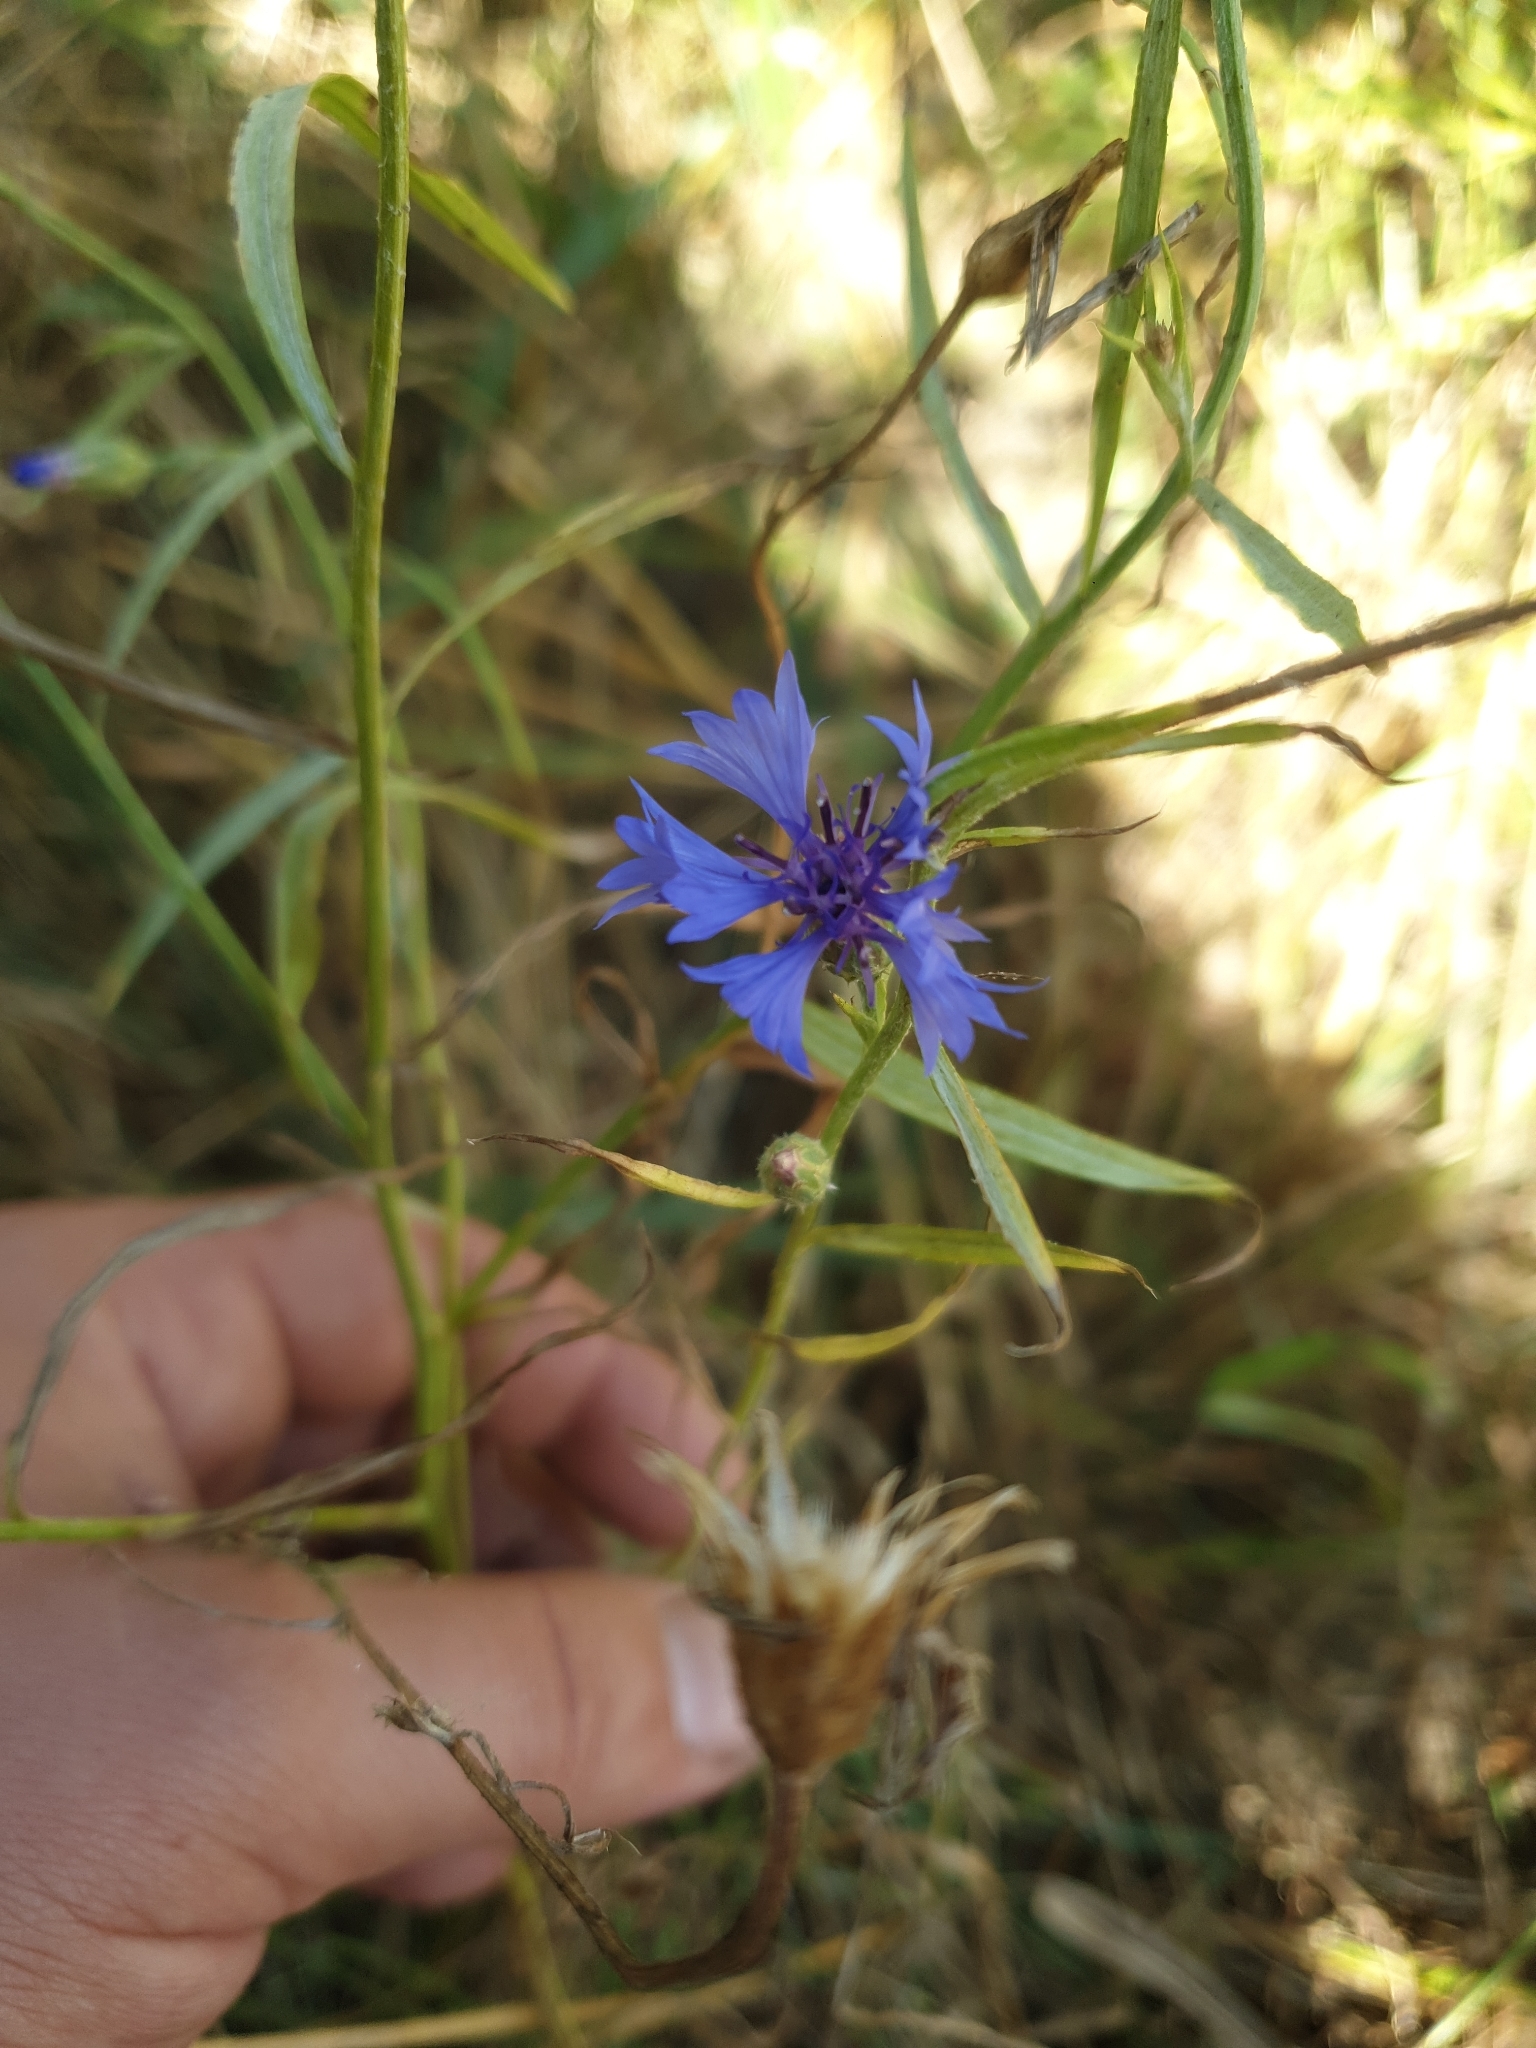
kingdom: Plantae
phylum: Tracheophyta
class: Magnoliopsida
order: Asterales
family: Asteraceae
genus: Centaurea
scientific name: Centaurea cyanus
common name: Cornflower
